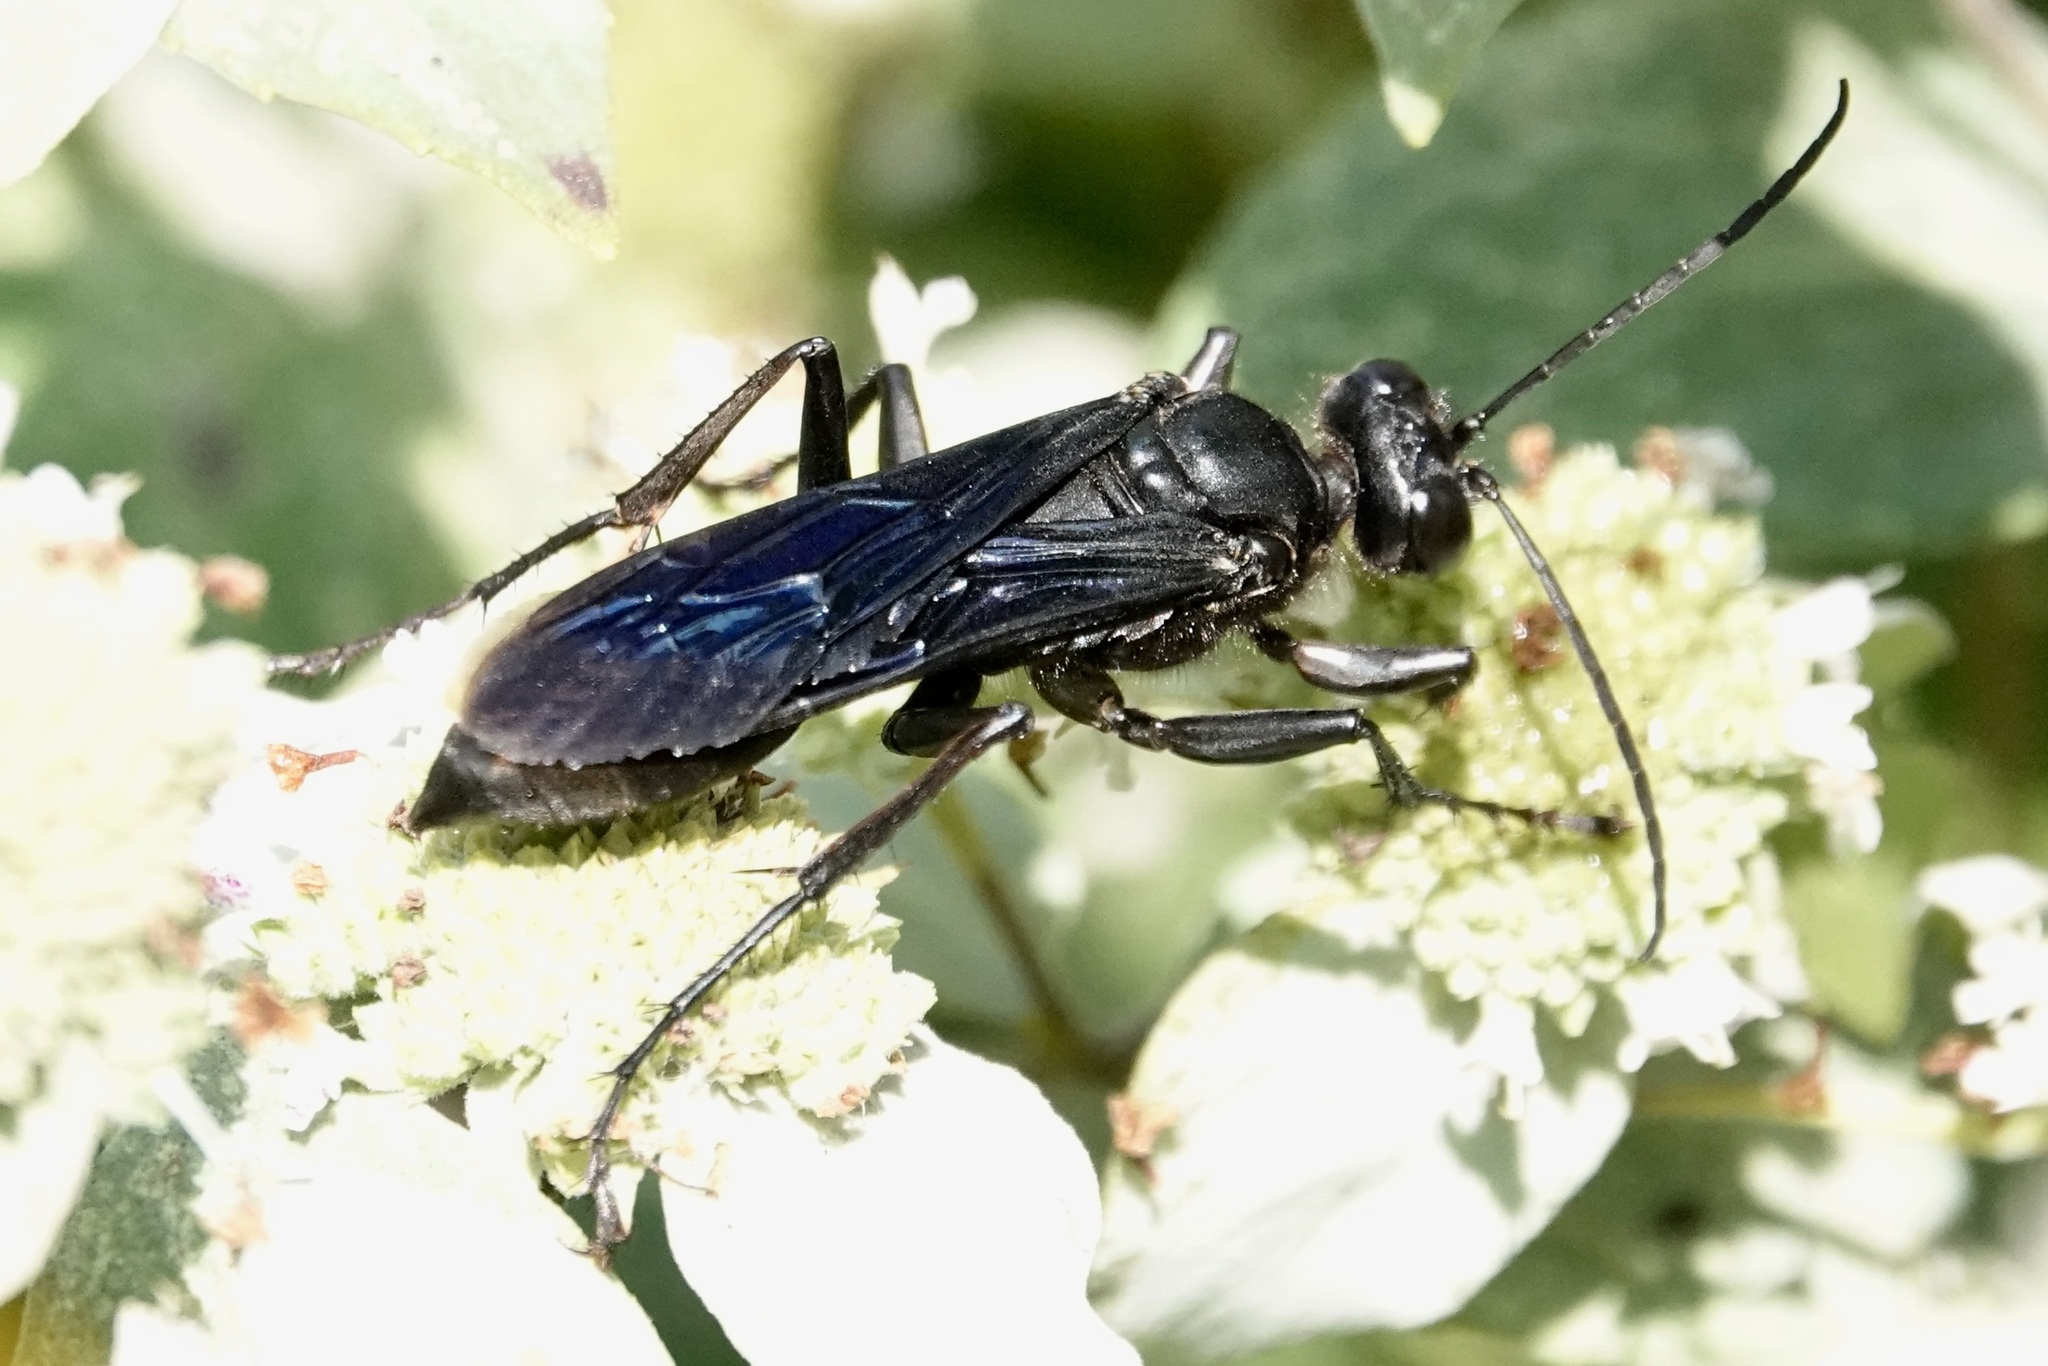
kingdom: Animalia
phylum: Arthropoda
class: Insecta
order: Hymenoptera
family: Sphecidae
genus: Sphex
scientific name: Sphex pensylvanicus
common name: Great black digger wasp
